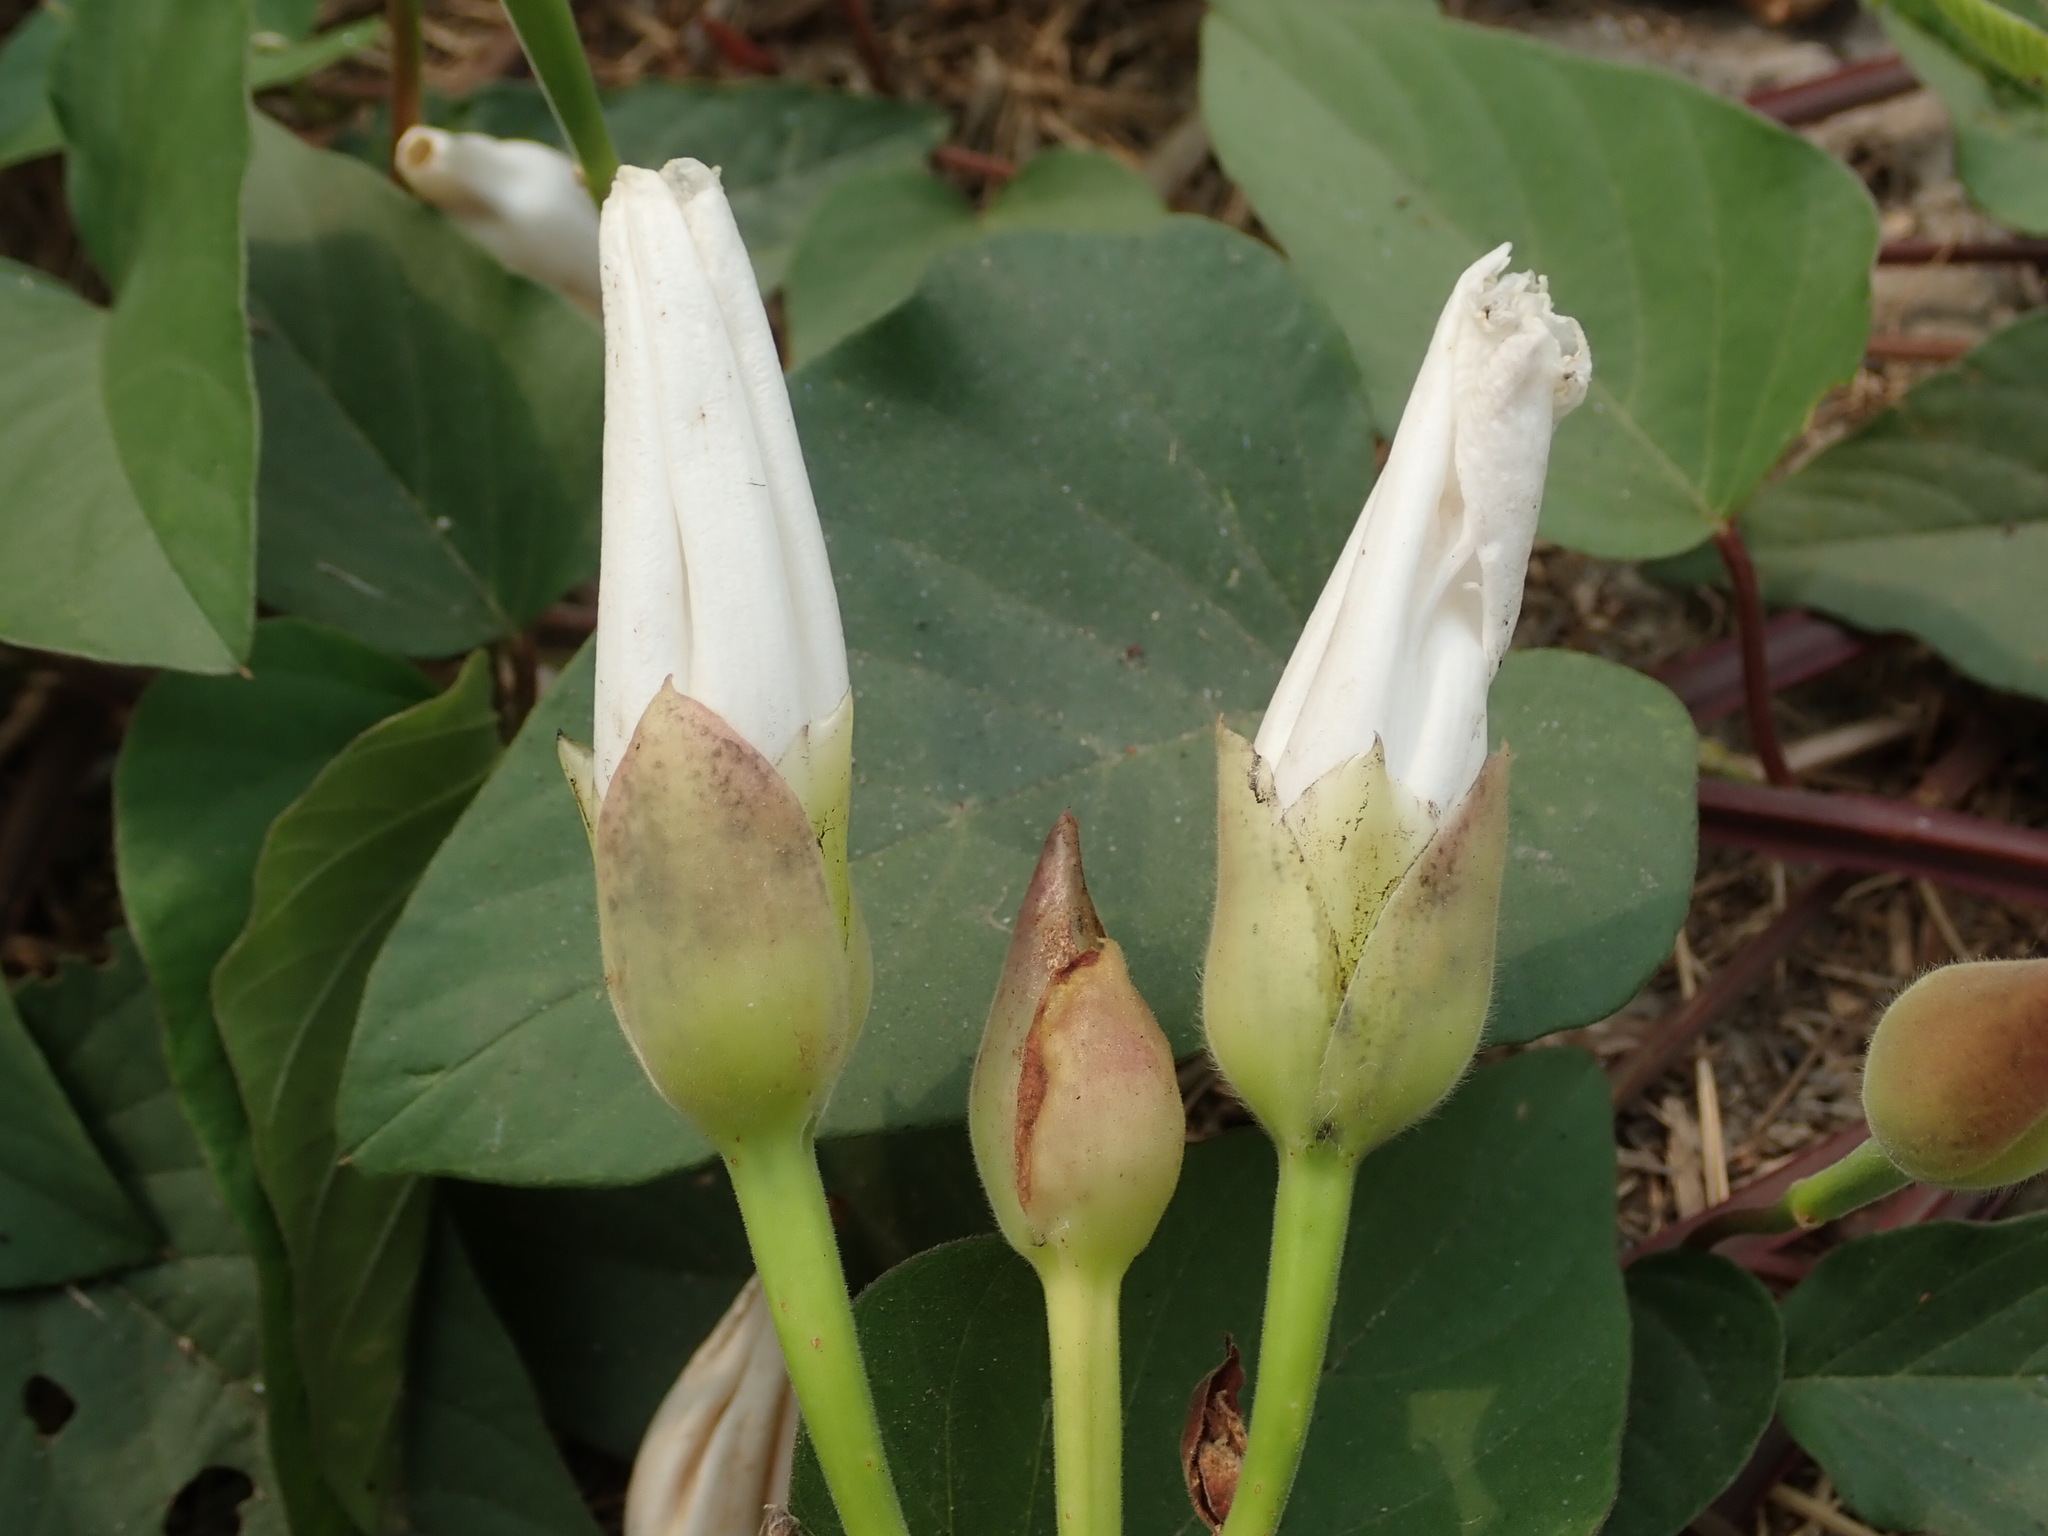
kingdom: Plantae
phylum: Tracheophyta
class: Magnoliopsida
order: Solanales
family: Convolvulaceae
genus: Operculina
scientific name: Operculina turpethum
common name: Transparent wood-rose
